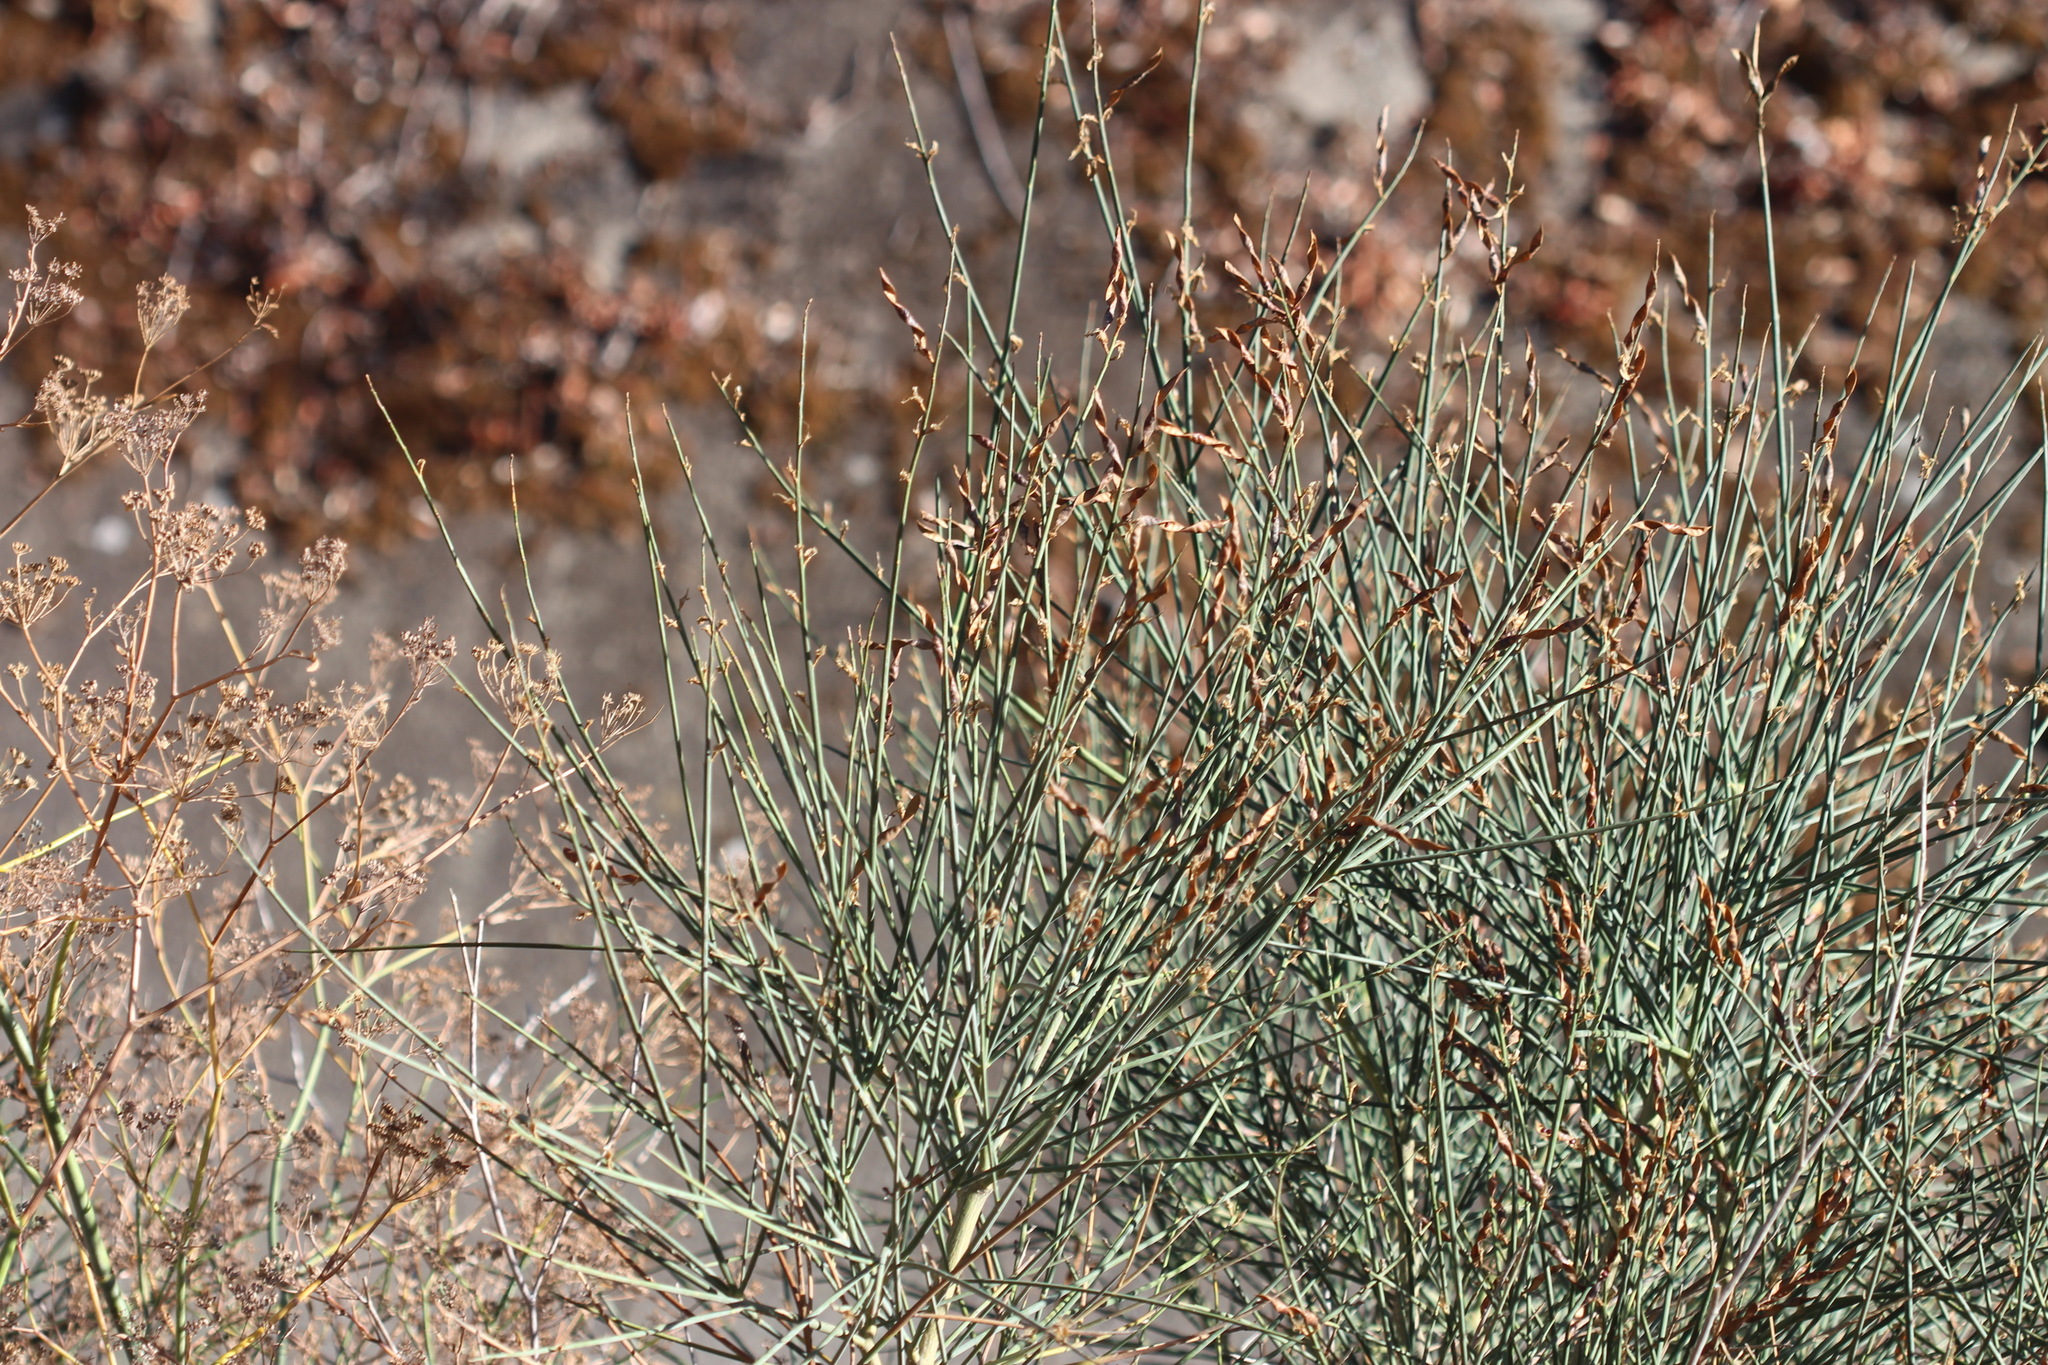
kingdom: Plantae
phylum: Tracheophyta
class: Magnoliopsida
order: Fabales
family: Fabaceae
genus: Spartium
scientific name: Spartium junceum
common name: Spanish broom
